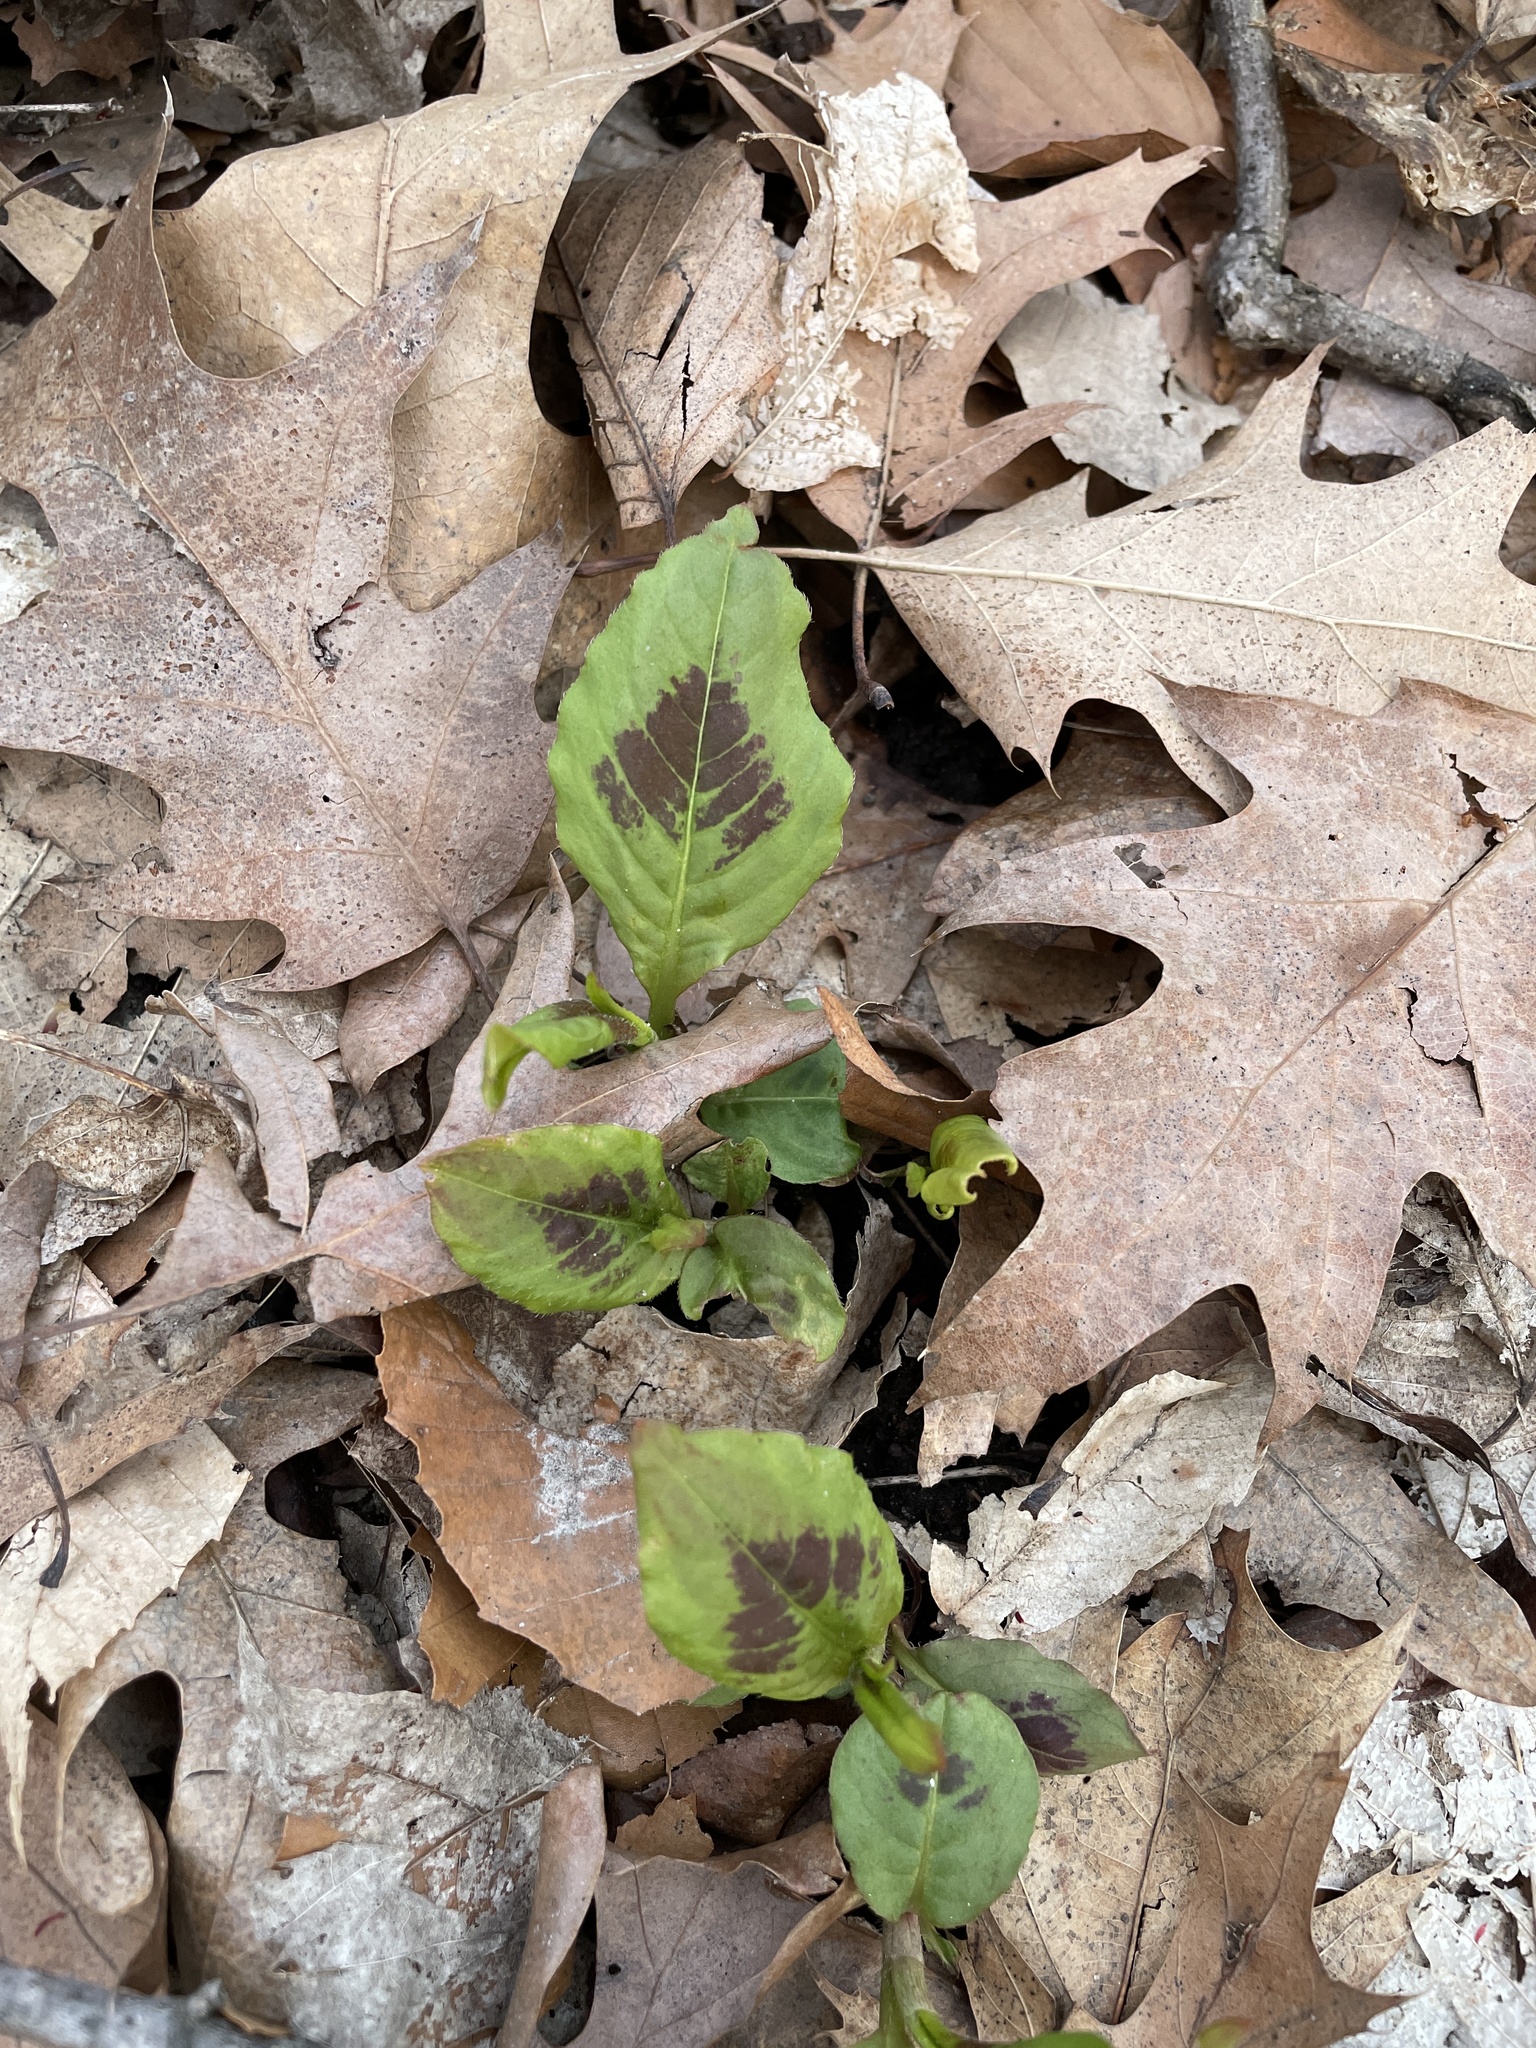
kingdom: Plantae
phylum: Tracheophyta
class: Magnoliopsida
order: Caryophyllales
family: Polygonaceae
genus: Persicaria
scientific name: Persicaria virginiana
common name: Jumpseed
